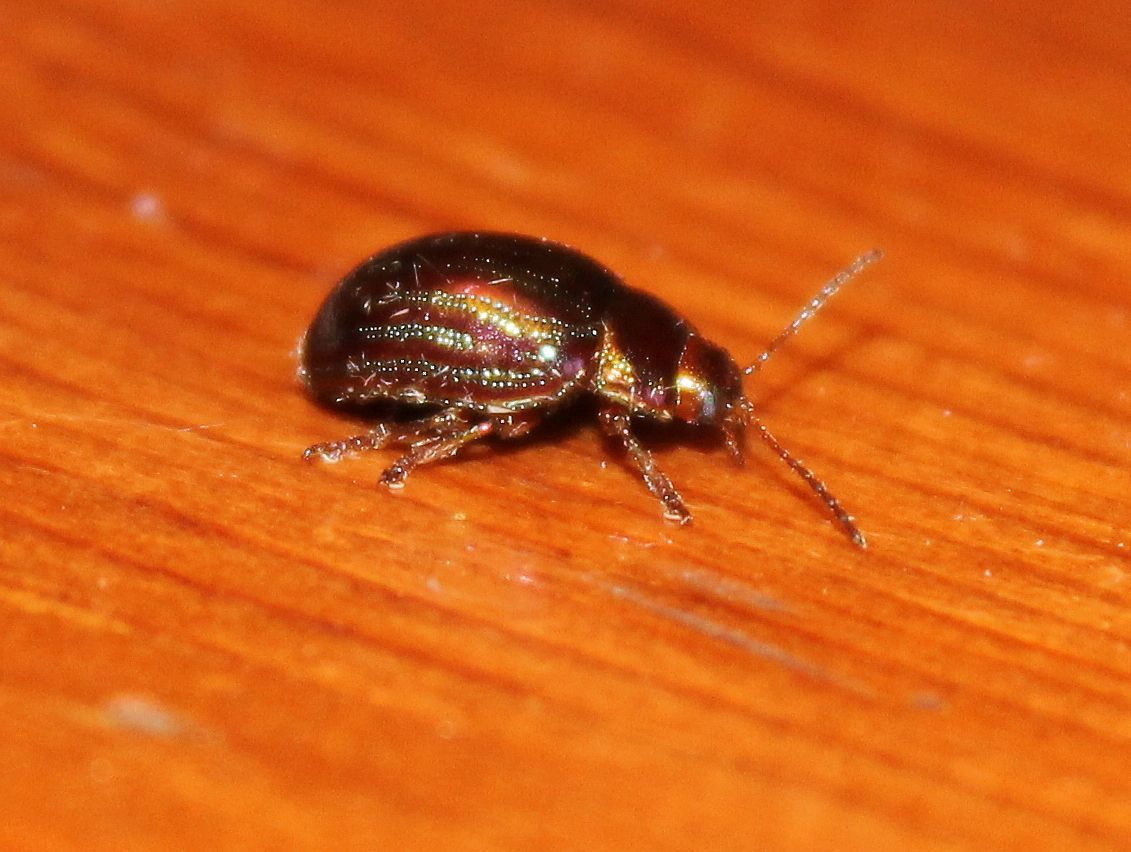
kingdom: Animalia
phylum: Arthropoda
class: Insecta
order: Coleoptera
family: Chrysomelidae
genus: Chrysolina
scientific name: Chrysolina americana
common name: Rosemary beetle
